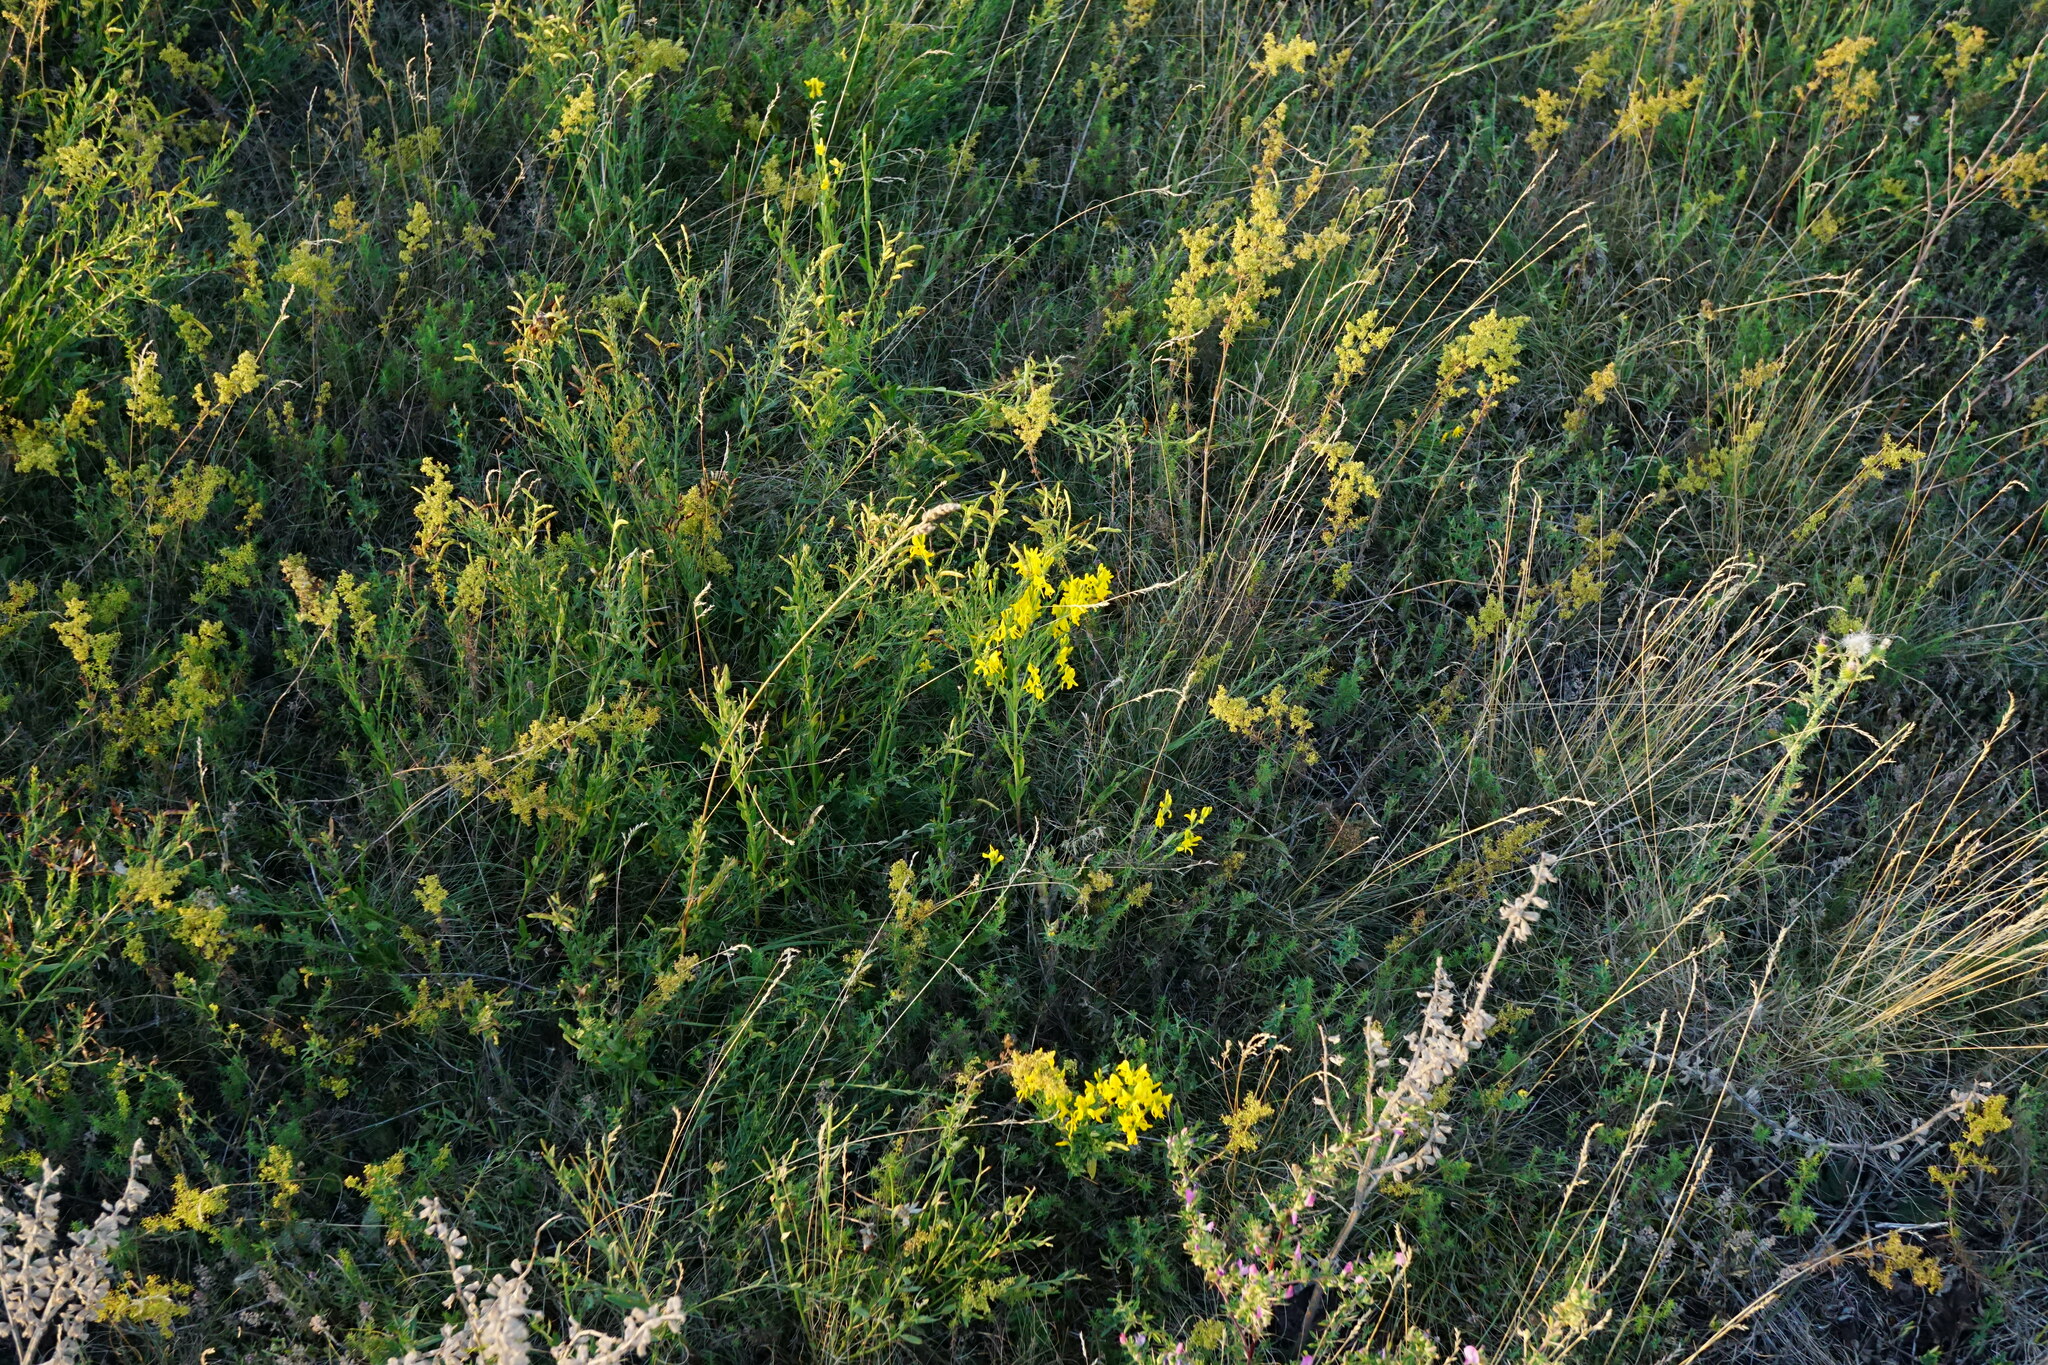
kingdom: Plantae
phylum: Tracheophyta
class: Magnoliopsida
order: Fabales
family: Fabaceae
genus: Genista
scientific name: Genista tinctoria
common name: Dyer's greenweed
